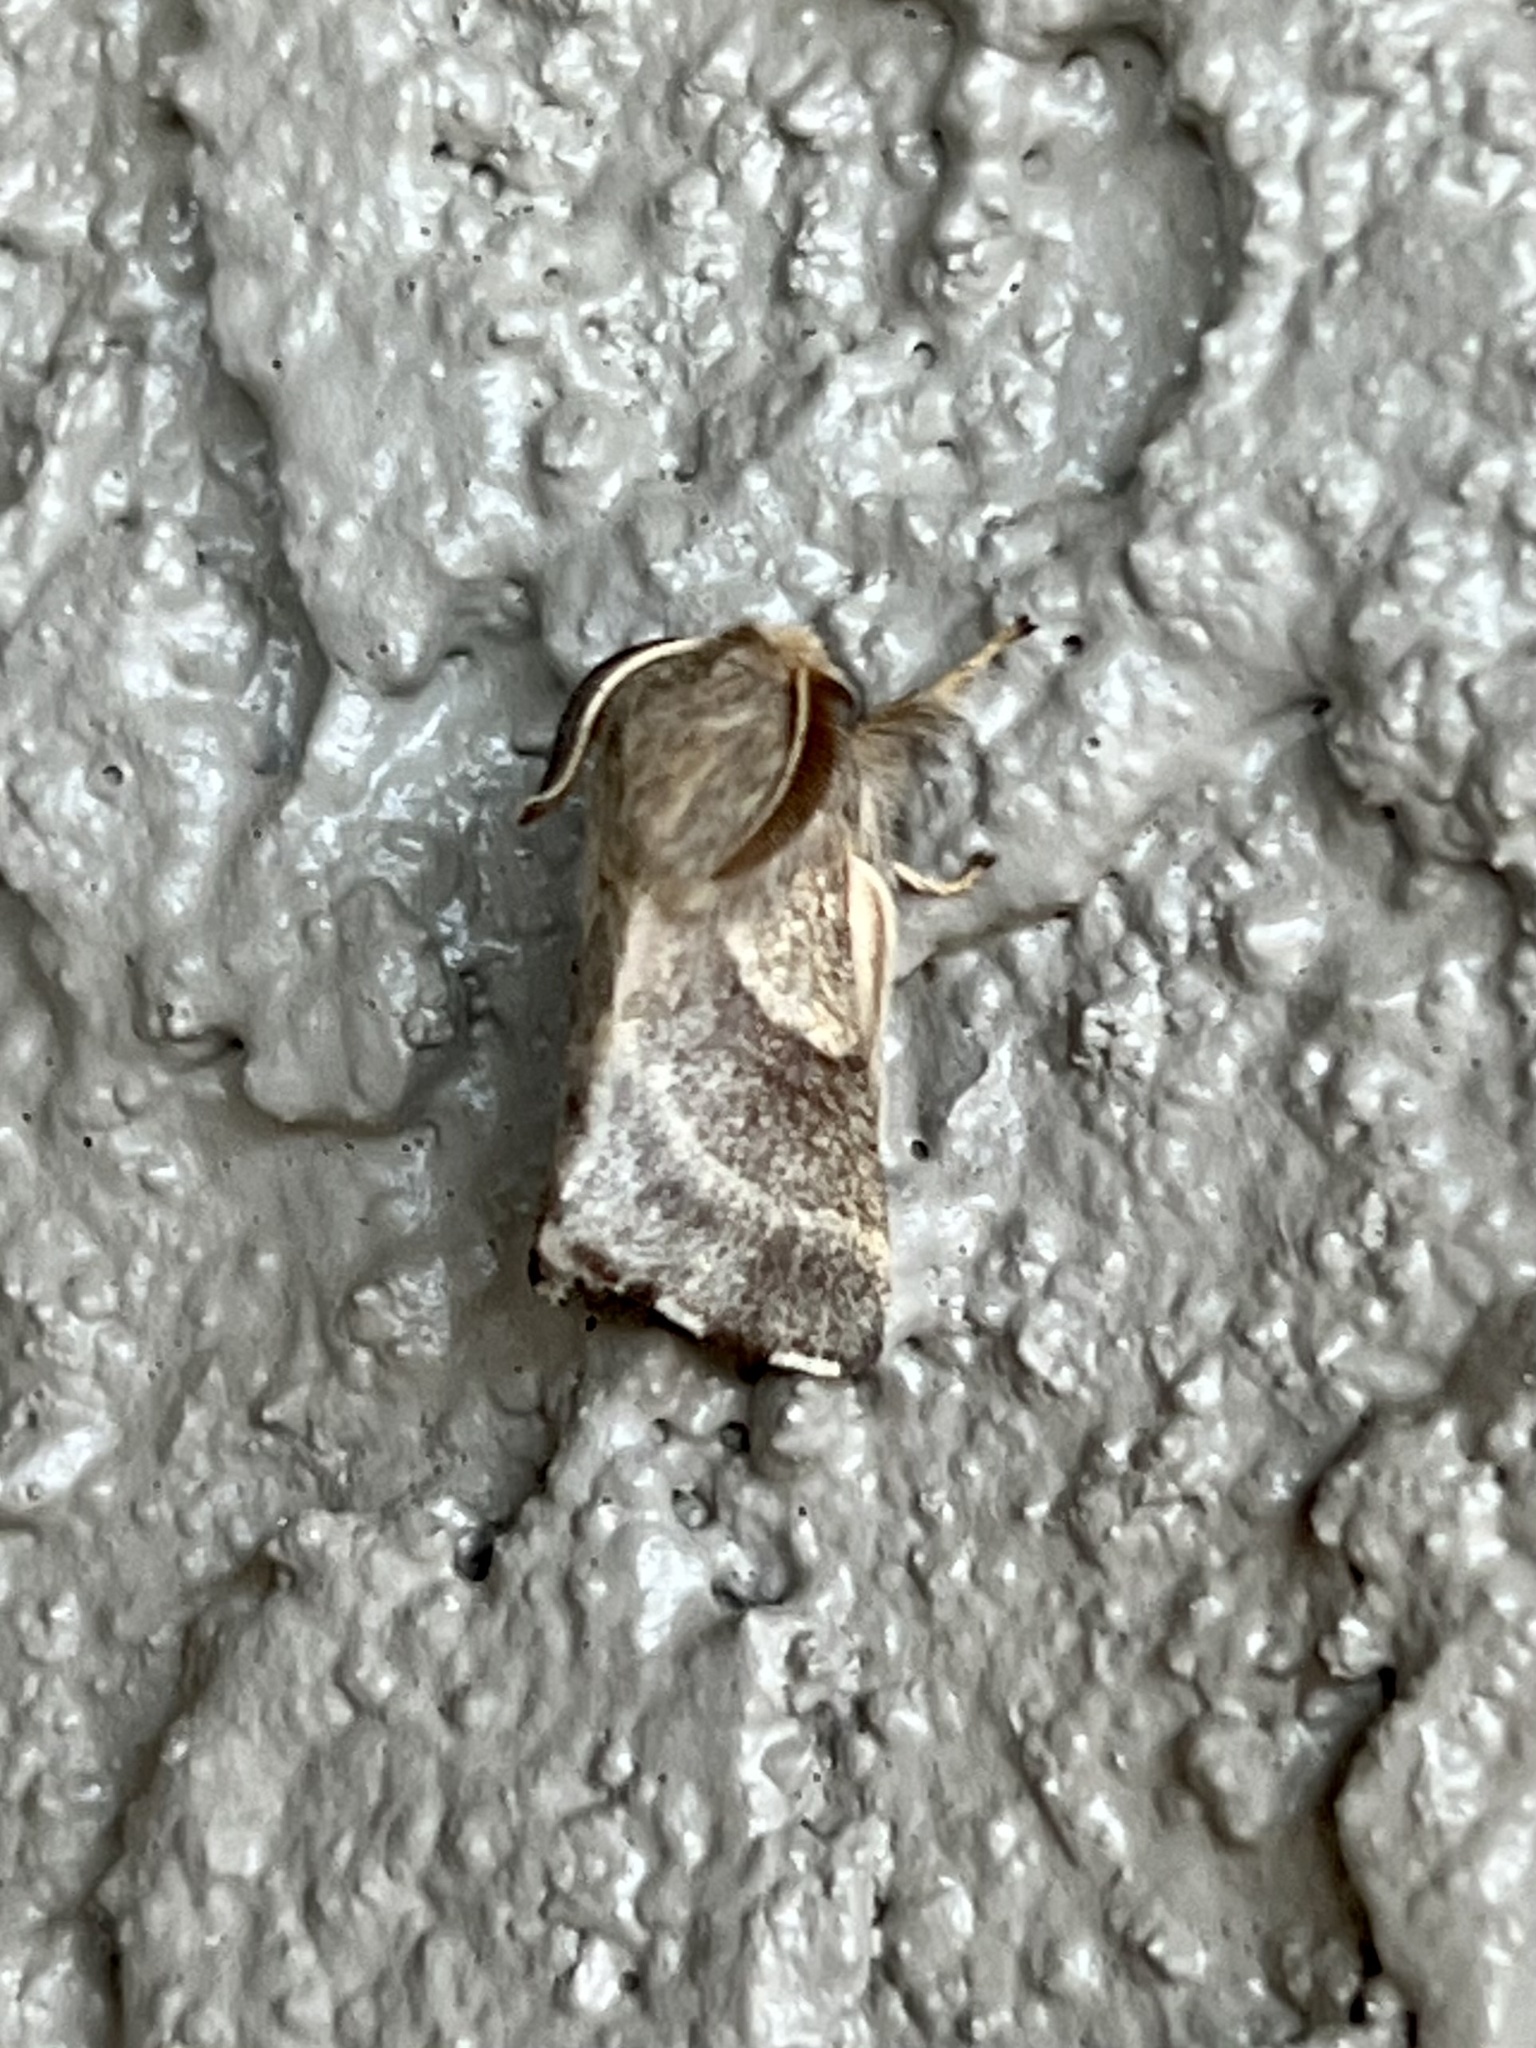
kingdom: Animalia
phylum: Arthropoda
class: Insecta
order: Lepidoptera
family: Lasiocampidae
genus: Malacosoma
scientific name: Malacosoma incurva
